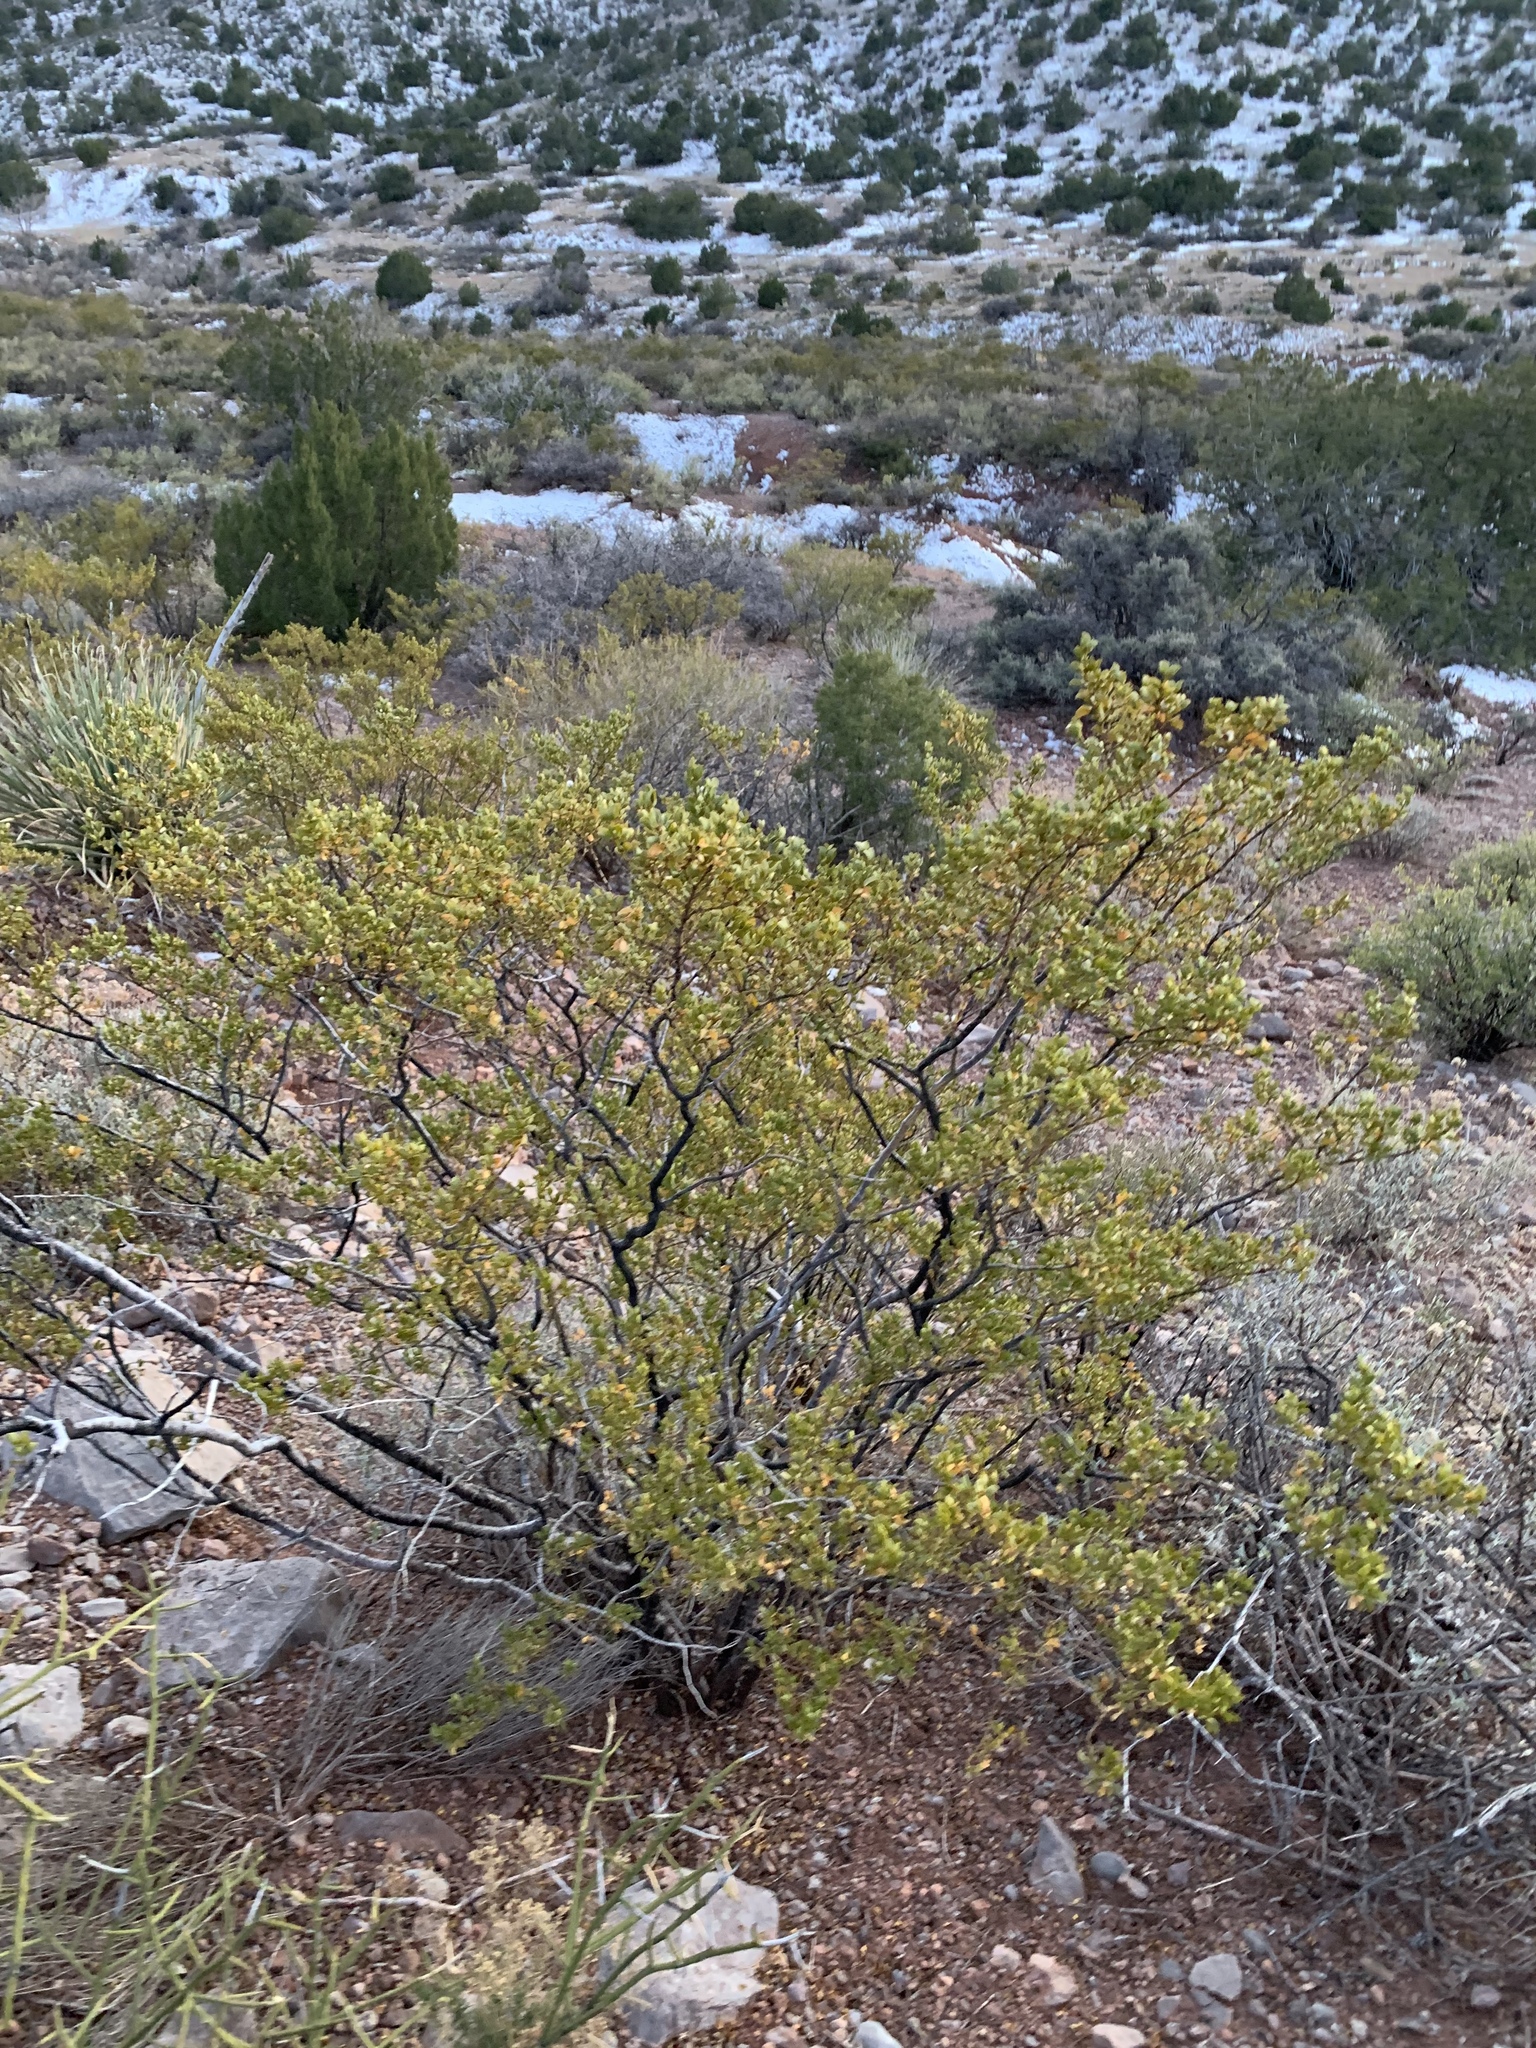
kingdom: Plantae
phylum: Tracheophyta
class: Magnoliopsida
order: Zygophyllales
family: Zygophyllaceae
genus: Larrea
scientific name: Larrea tridentata
